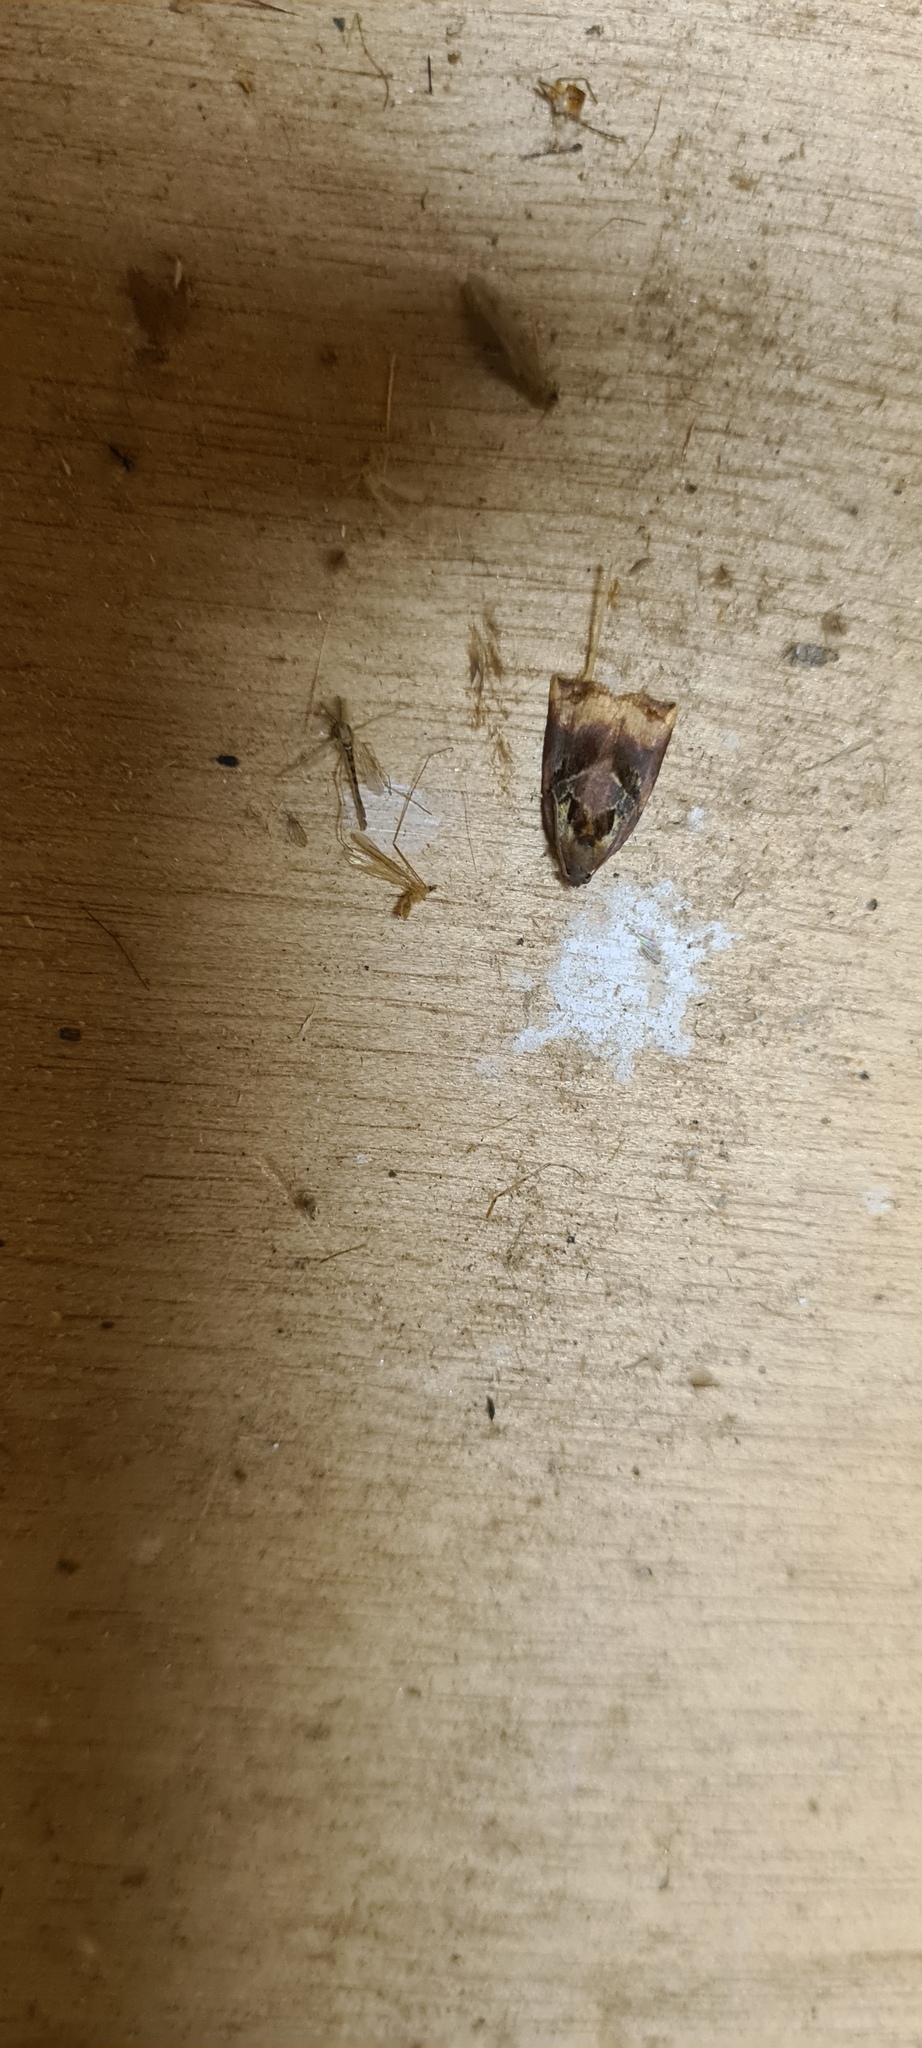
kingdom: Animalia
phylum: Arthropoda
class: Insecta
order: Lepidoptera
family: Tortricidae
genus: Archips
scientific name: Archips podana
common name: Large fruit-tree tortrix
